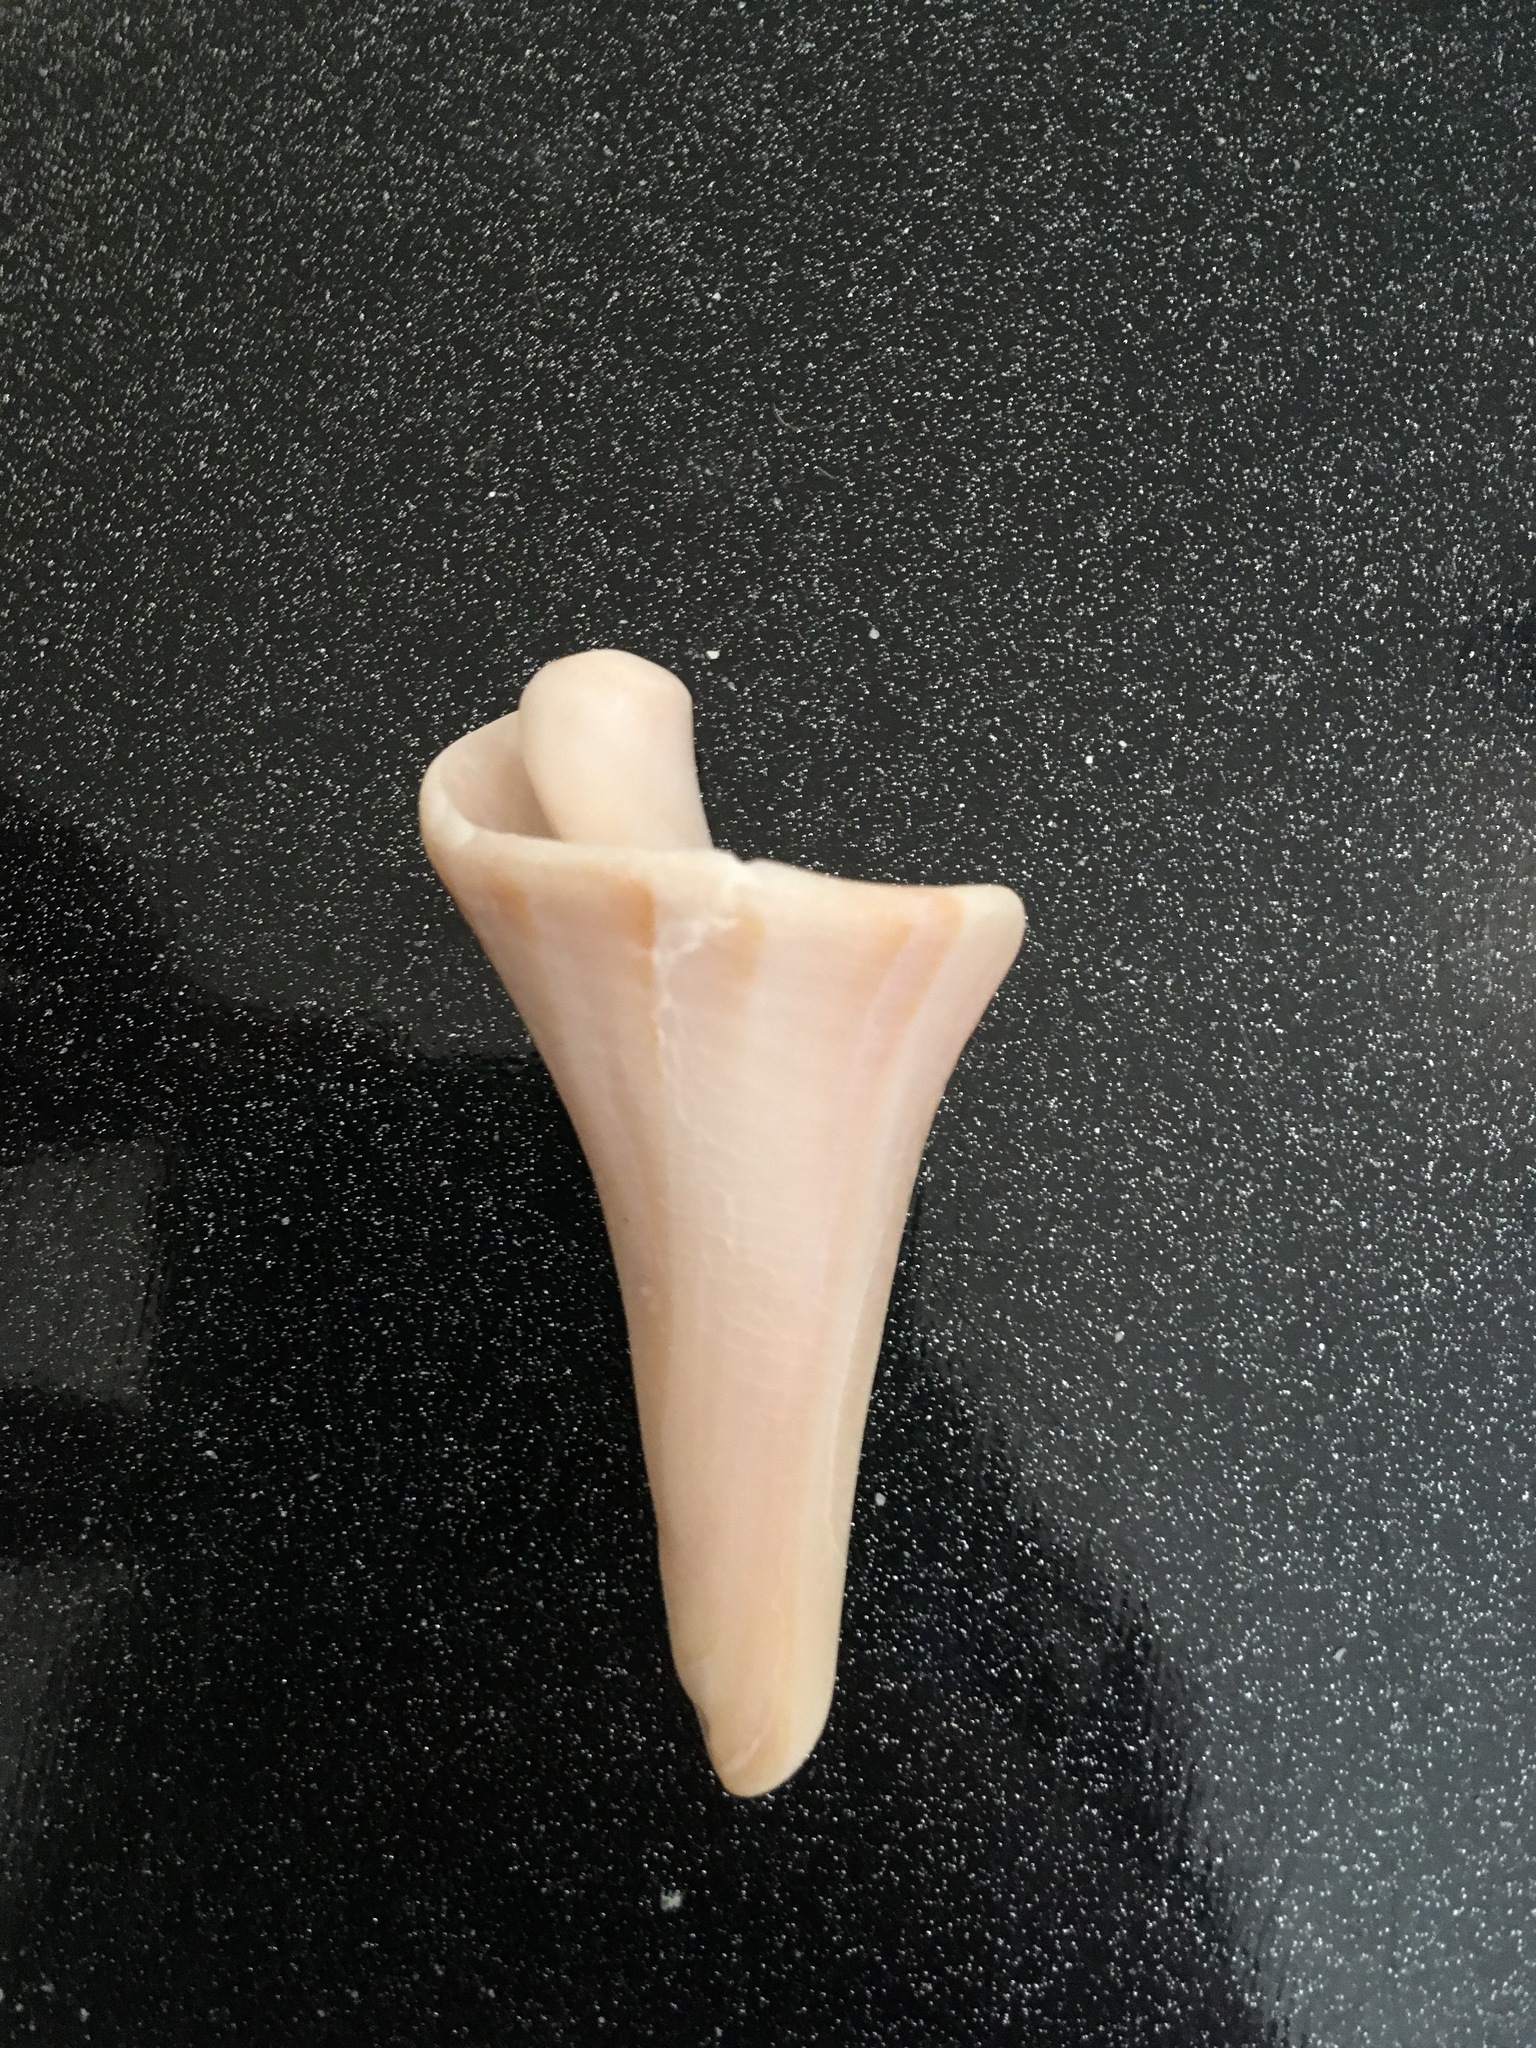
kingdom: Animalia
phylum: Mollusca
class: Gastropoda
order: Neogastropoda
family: Busyconidae
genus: Sinistrofulgur
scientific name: Sinistrofulgur sinistrum
